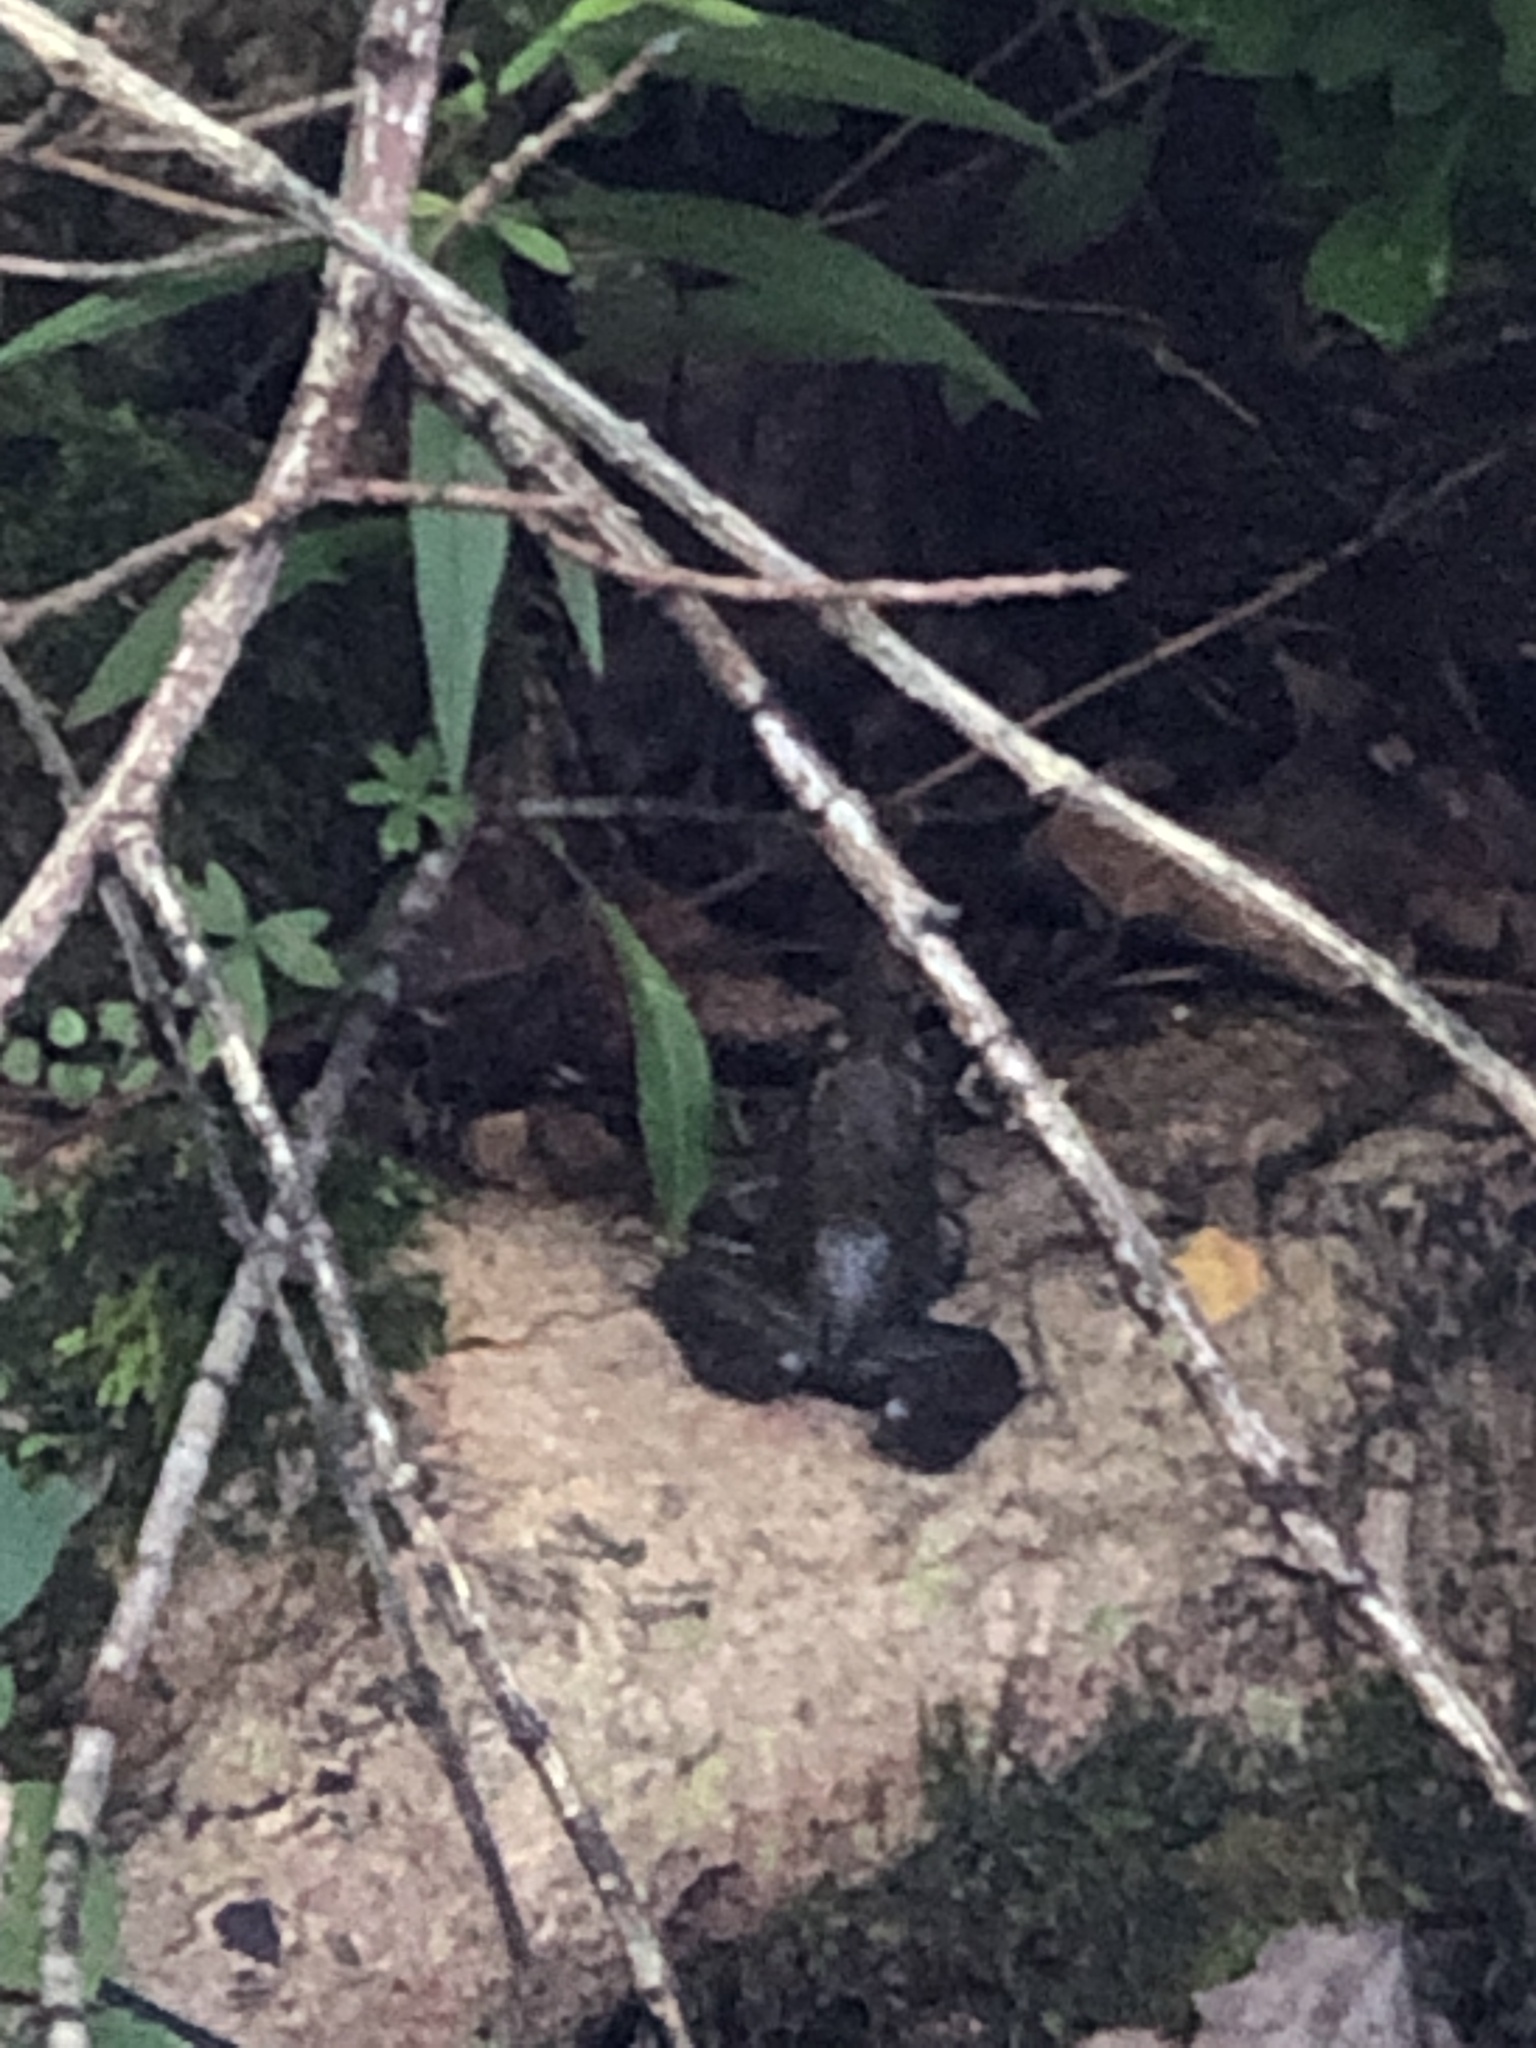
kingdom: Animalia
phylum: Chordata
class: Amphibia
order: Anura
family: Ranidae
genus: Lithobates
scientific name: Lithobates clamitans
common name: Green frog
